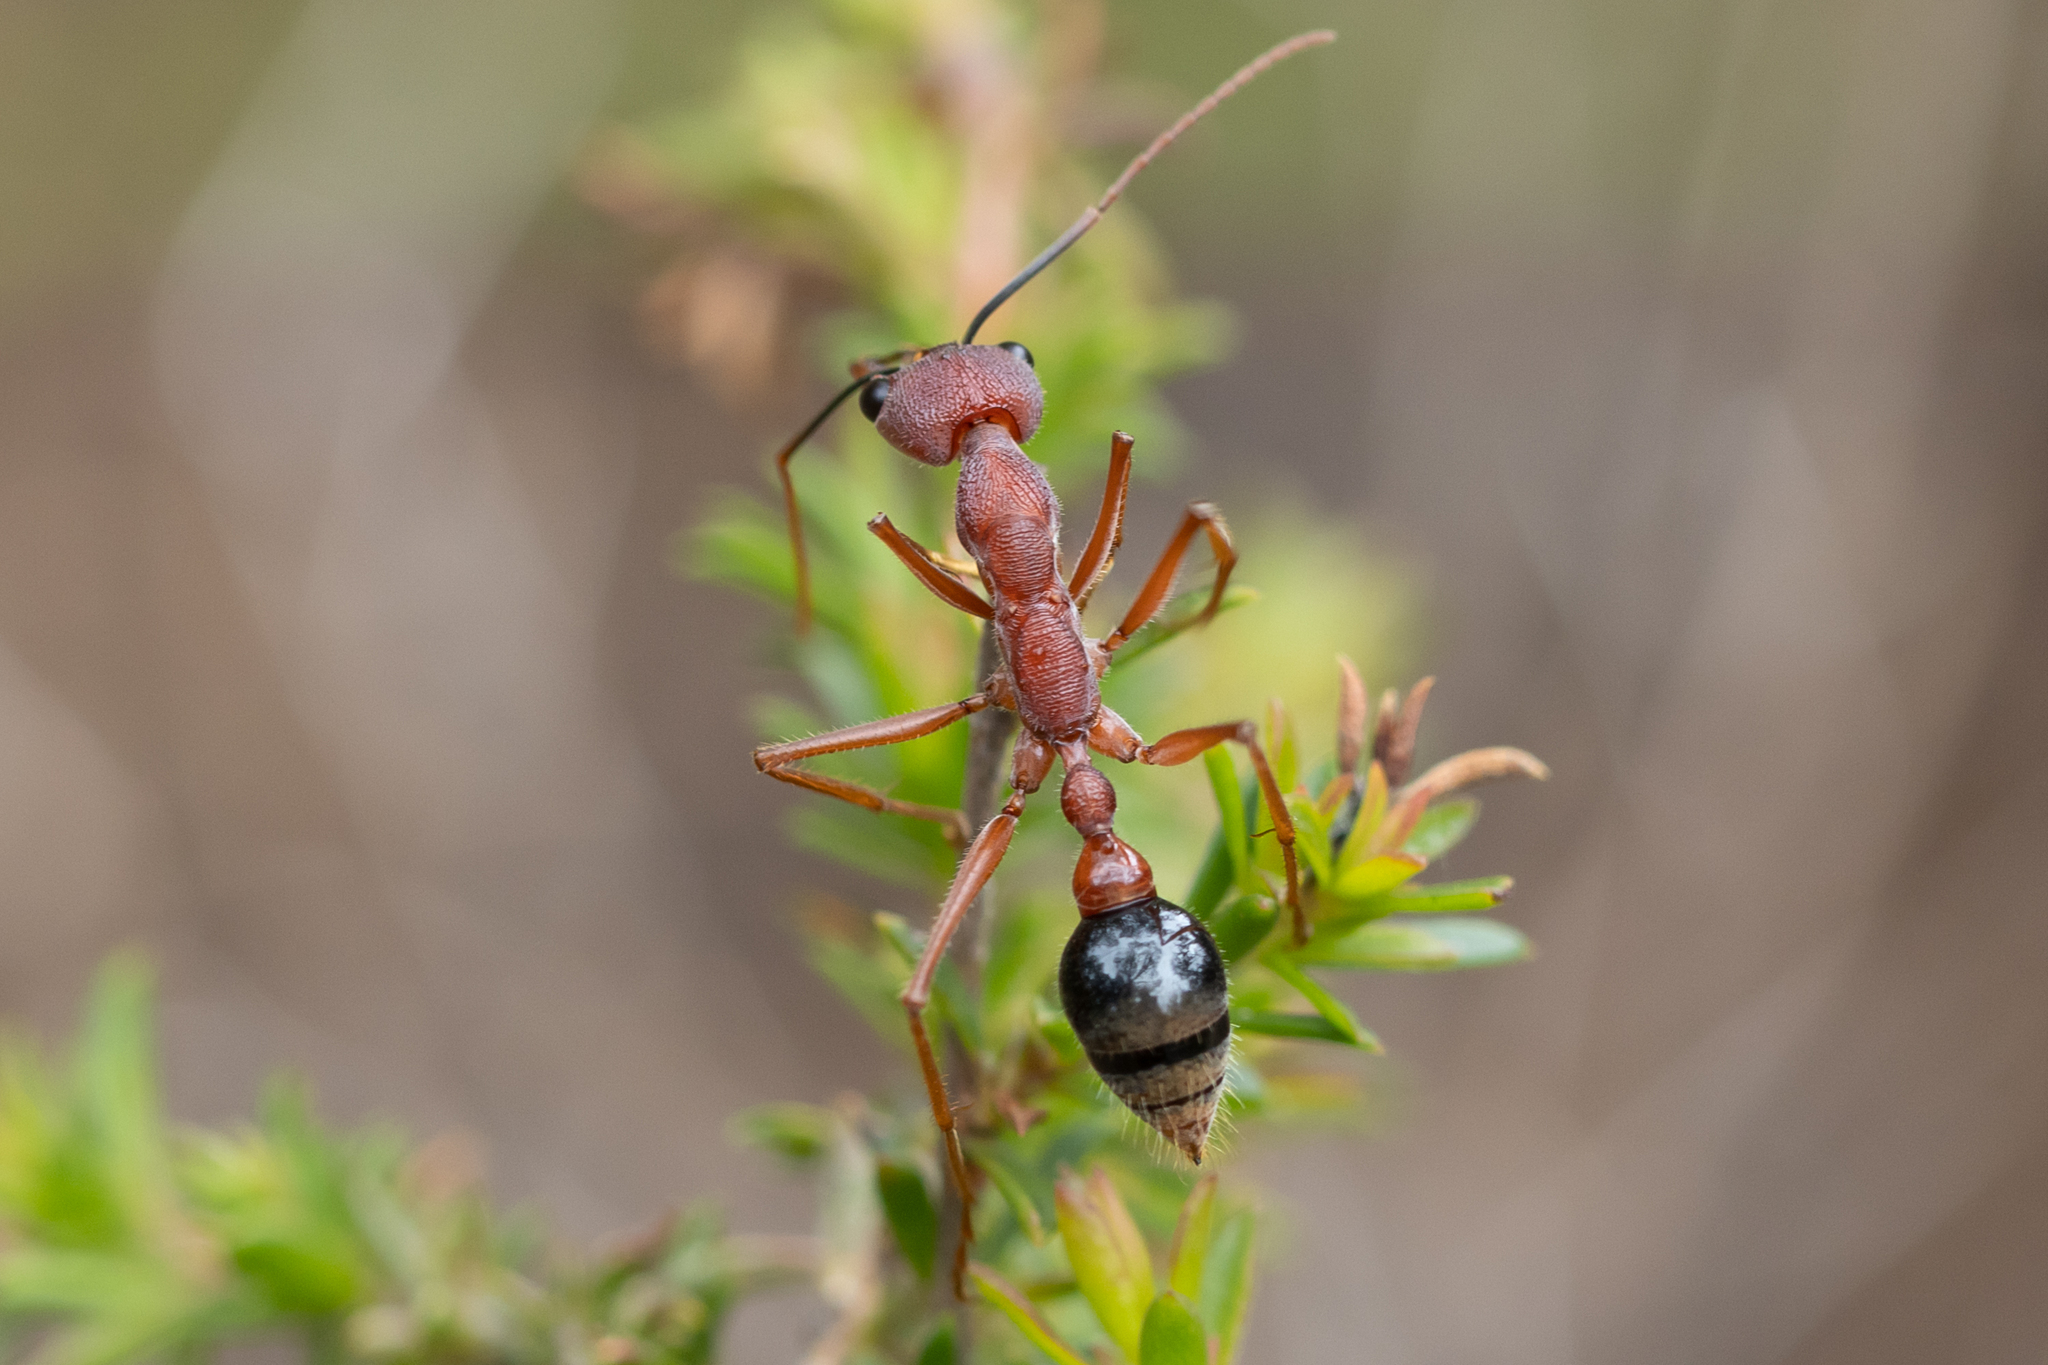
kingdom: Animalia
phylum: Arthropoda
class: Insecta
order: Hymenoptera
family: Formicidae
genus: Myrmecia
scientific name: Myrmecia analis
